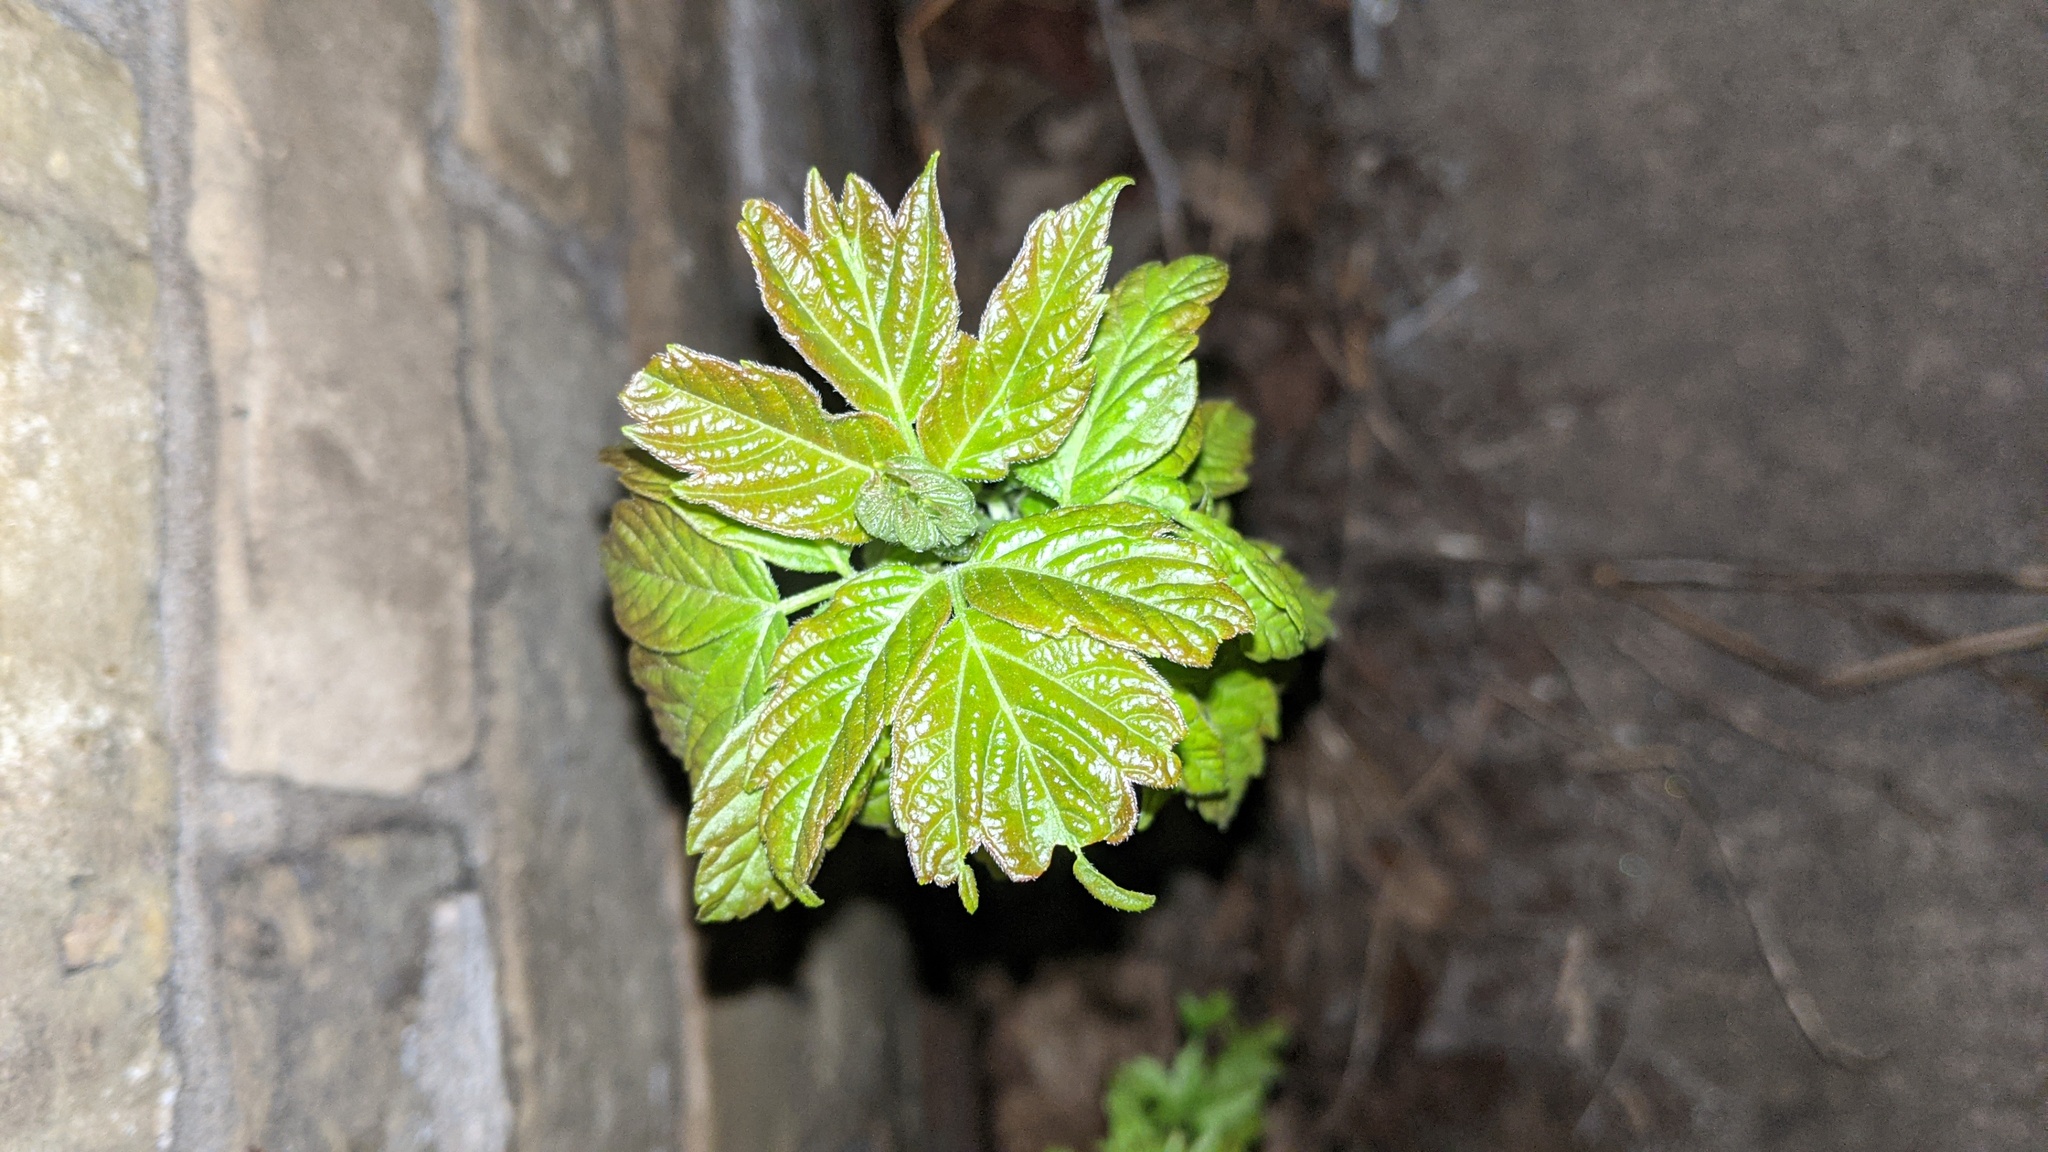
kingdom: Plantae
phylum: Tracheophyta
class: Magnoliopsida
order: Sapindales
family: Sapindaceae
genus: Acer
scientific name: Acer negundo
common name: Ashleaf maple
